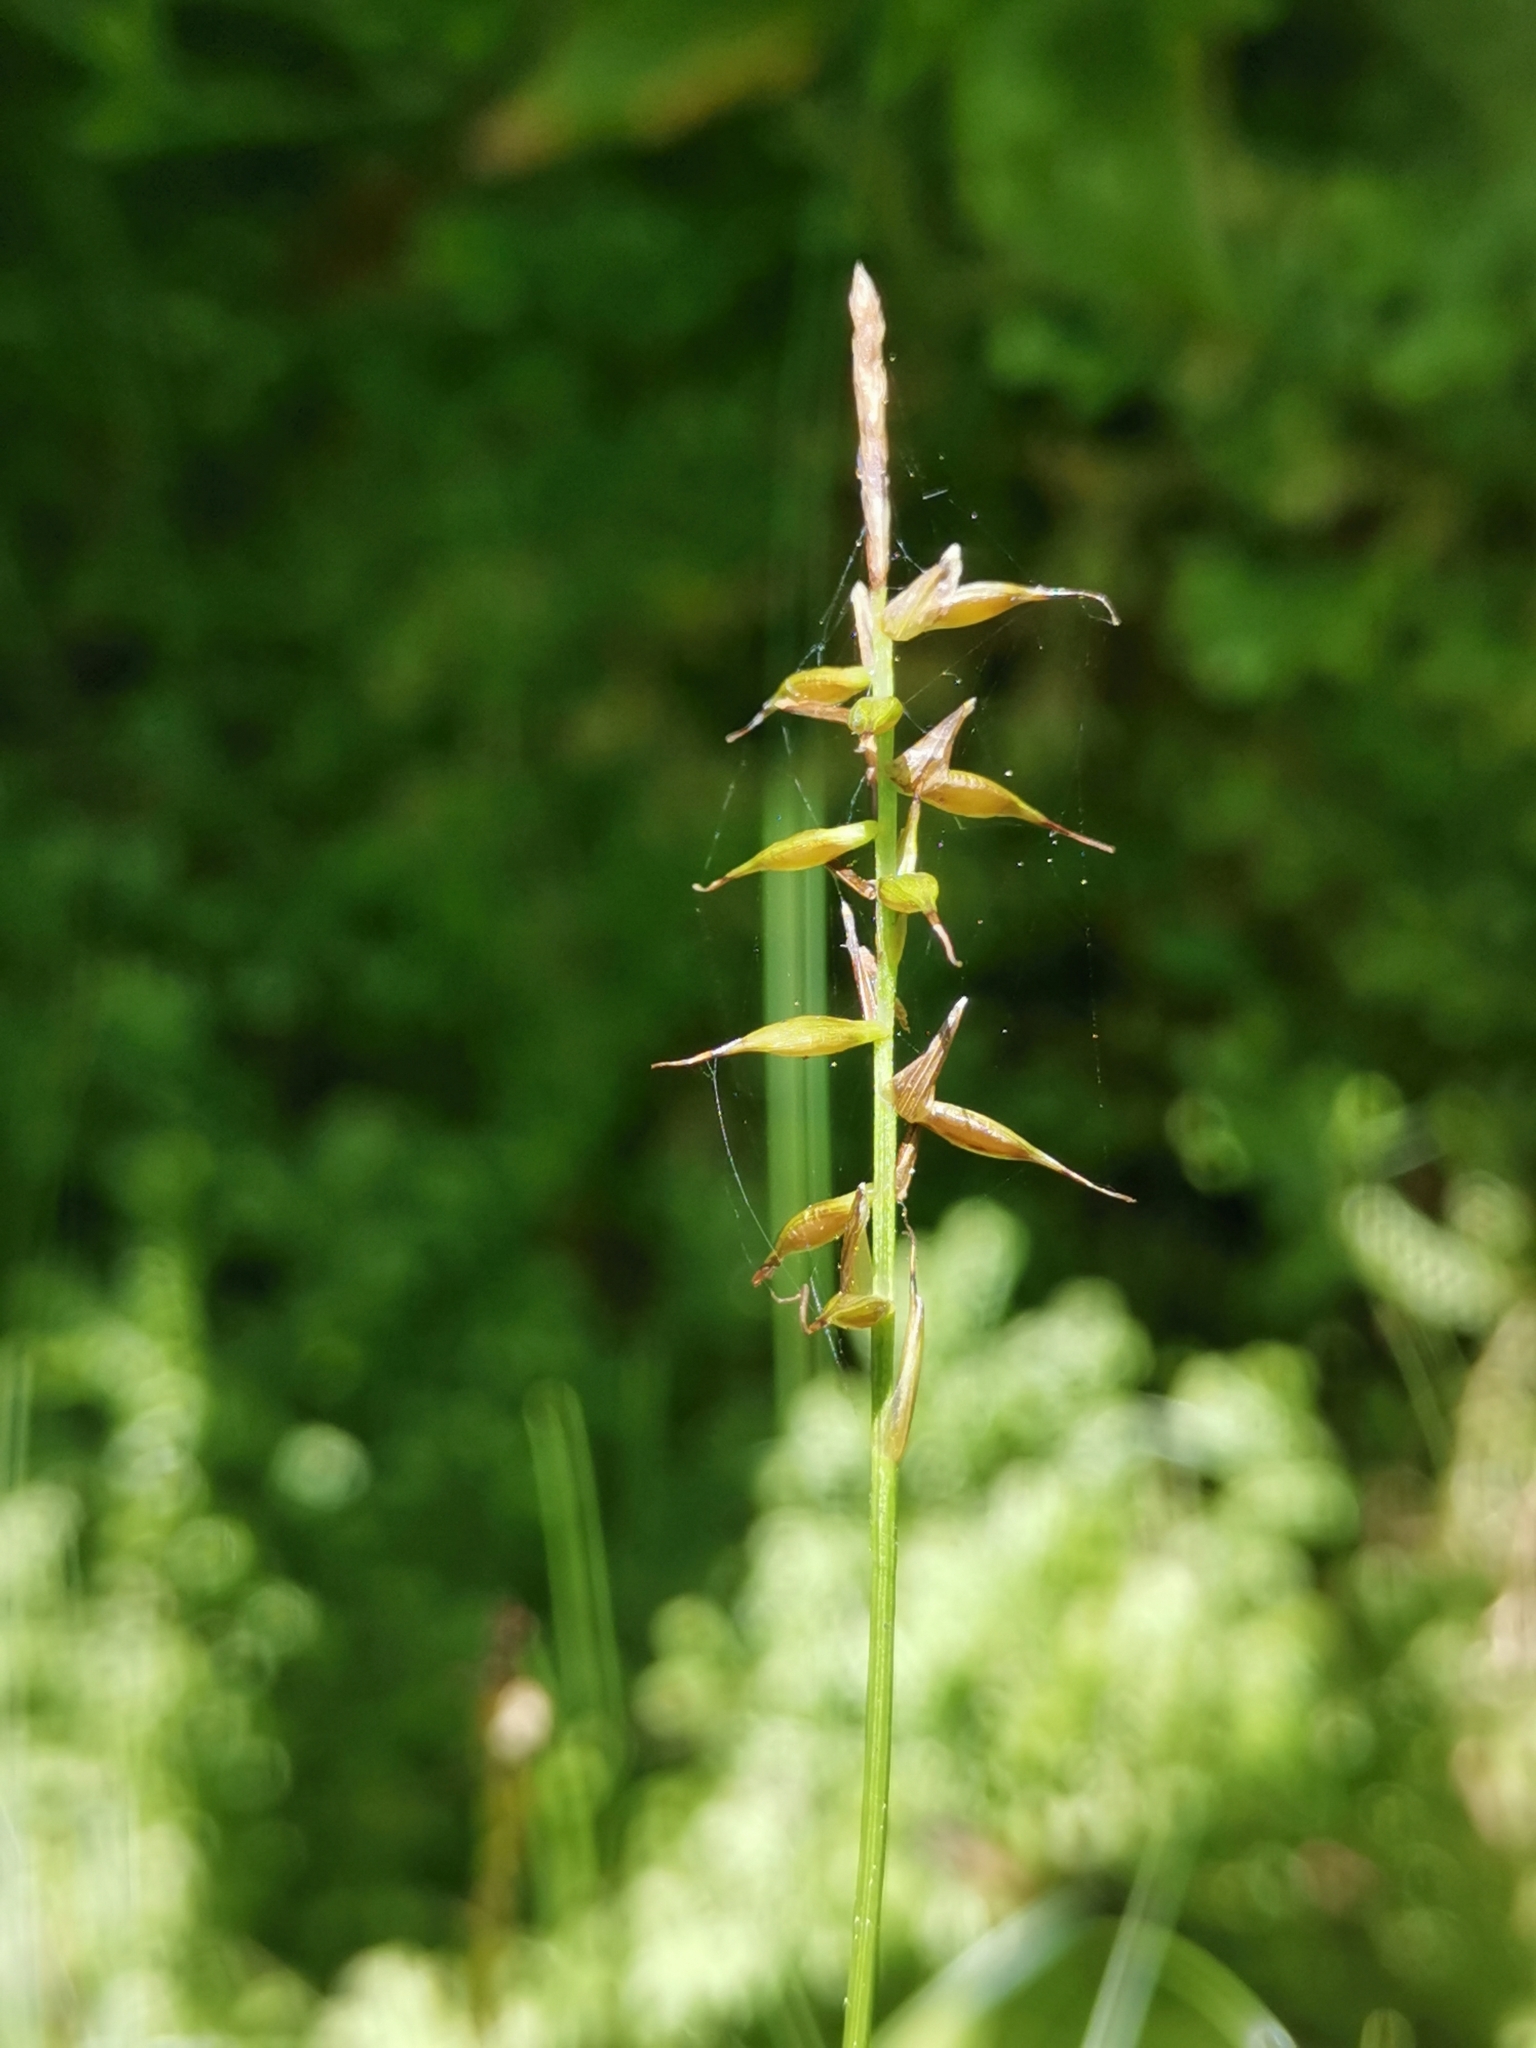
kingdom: Plantae
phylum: Tracheophyta
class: Liliopsida
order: Poales
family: Cyperaceae
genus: Carex
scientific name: Carex peregrina
